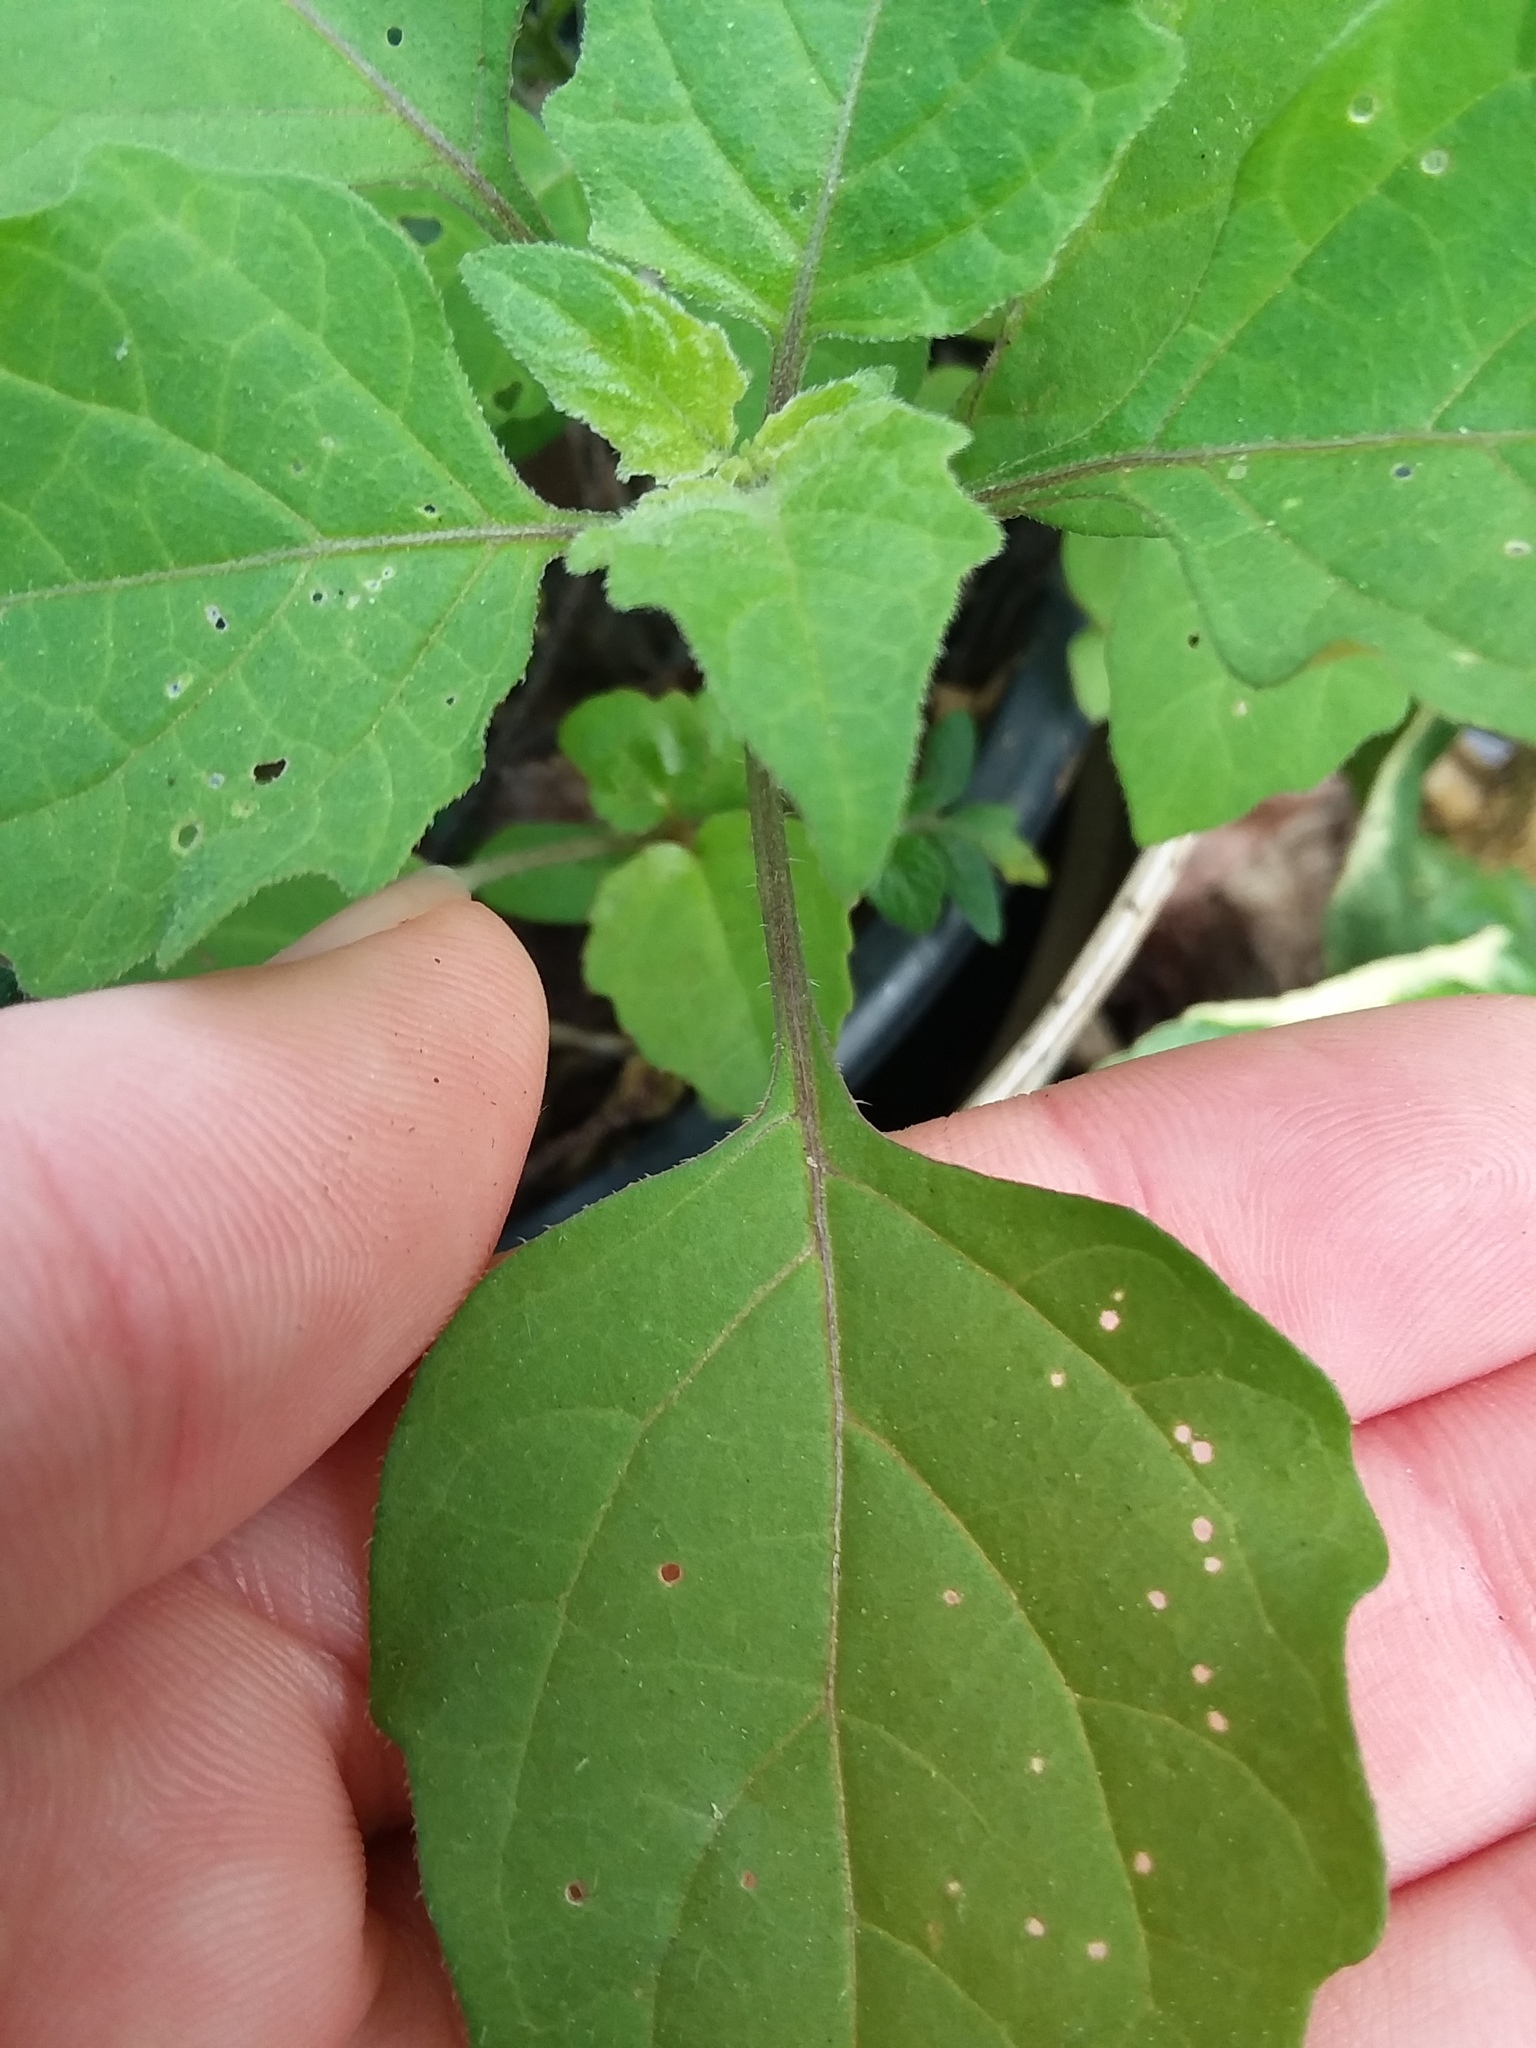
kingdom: Plantae
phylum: Tracheophyta
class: Magnoliopsida
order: Solanales
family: Solanaceae
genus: Solanum
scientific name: Solanum
